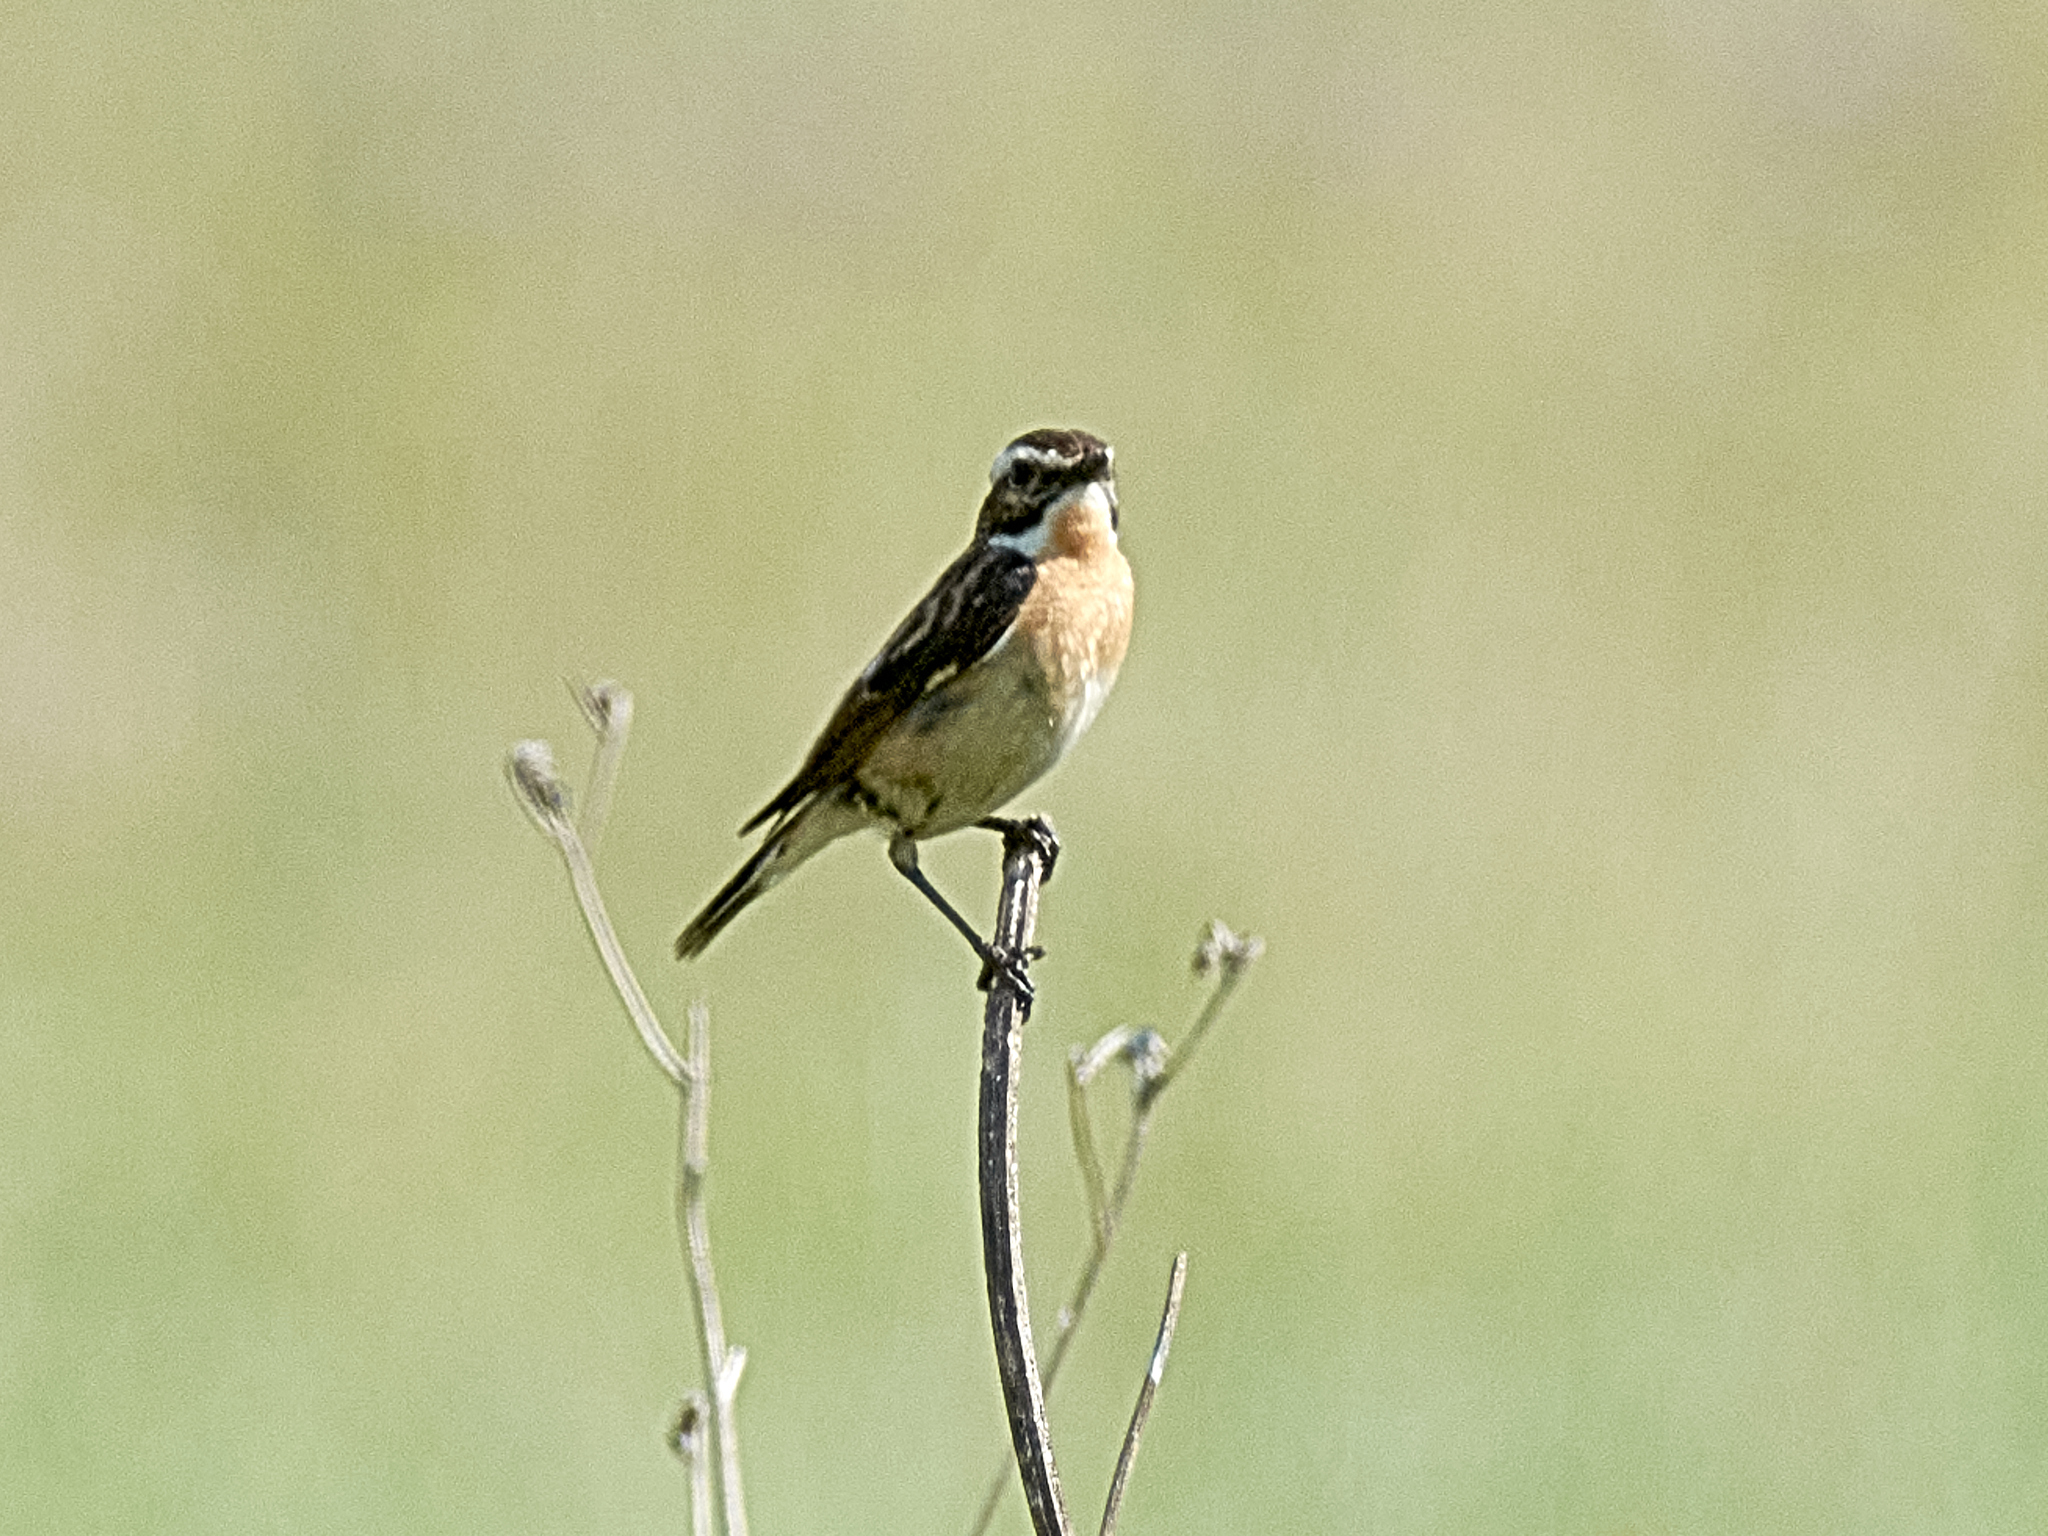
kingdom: Animalia
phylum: Chordata
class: Aves
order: Passeriformes
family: Muscicapidae
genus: Saxicola
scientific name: Saxicola rubetra
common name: Whinchat
